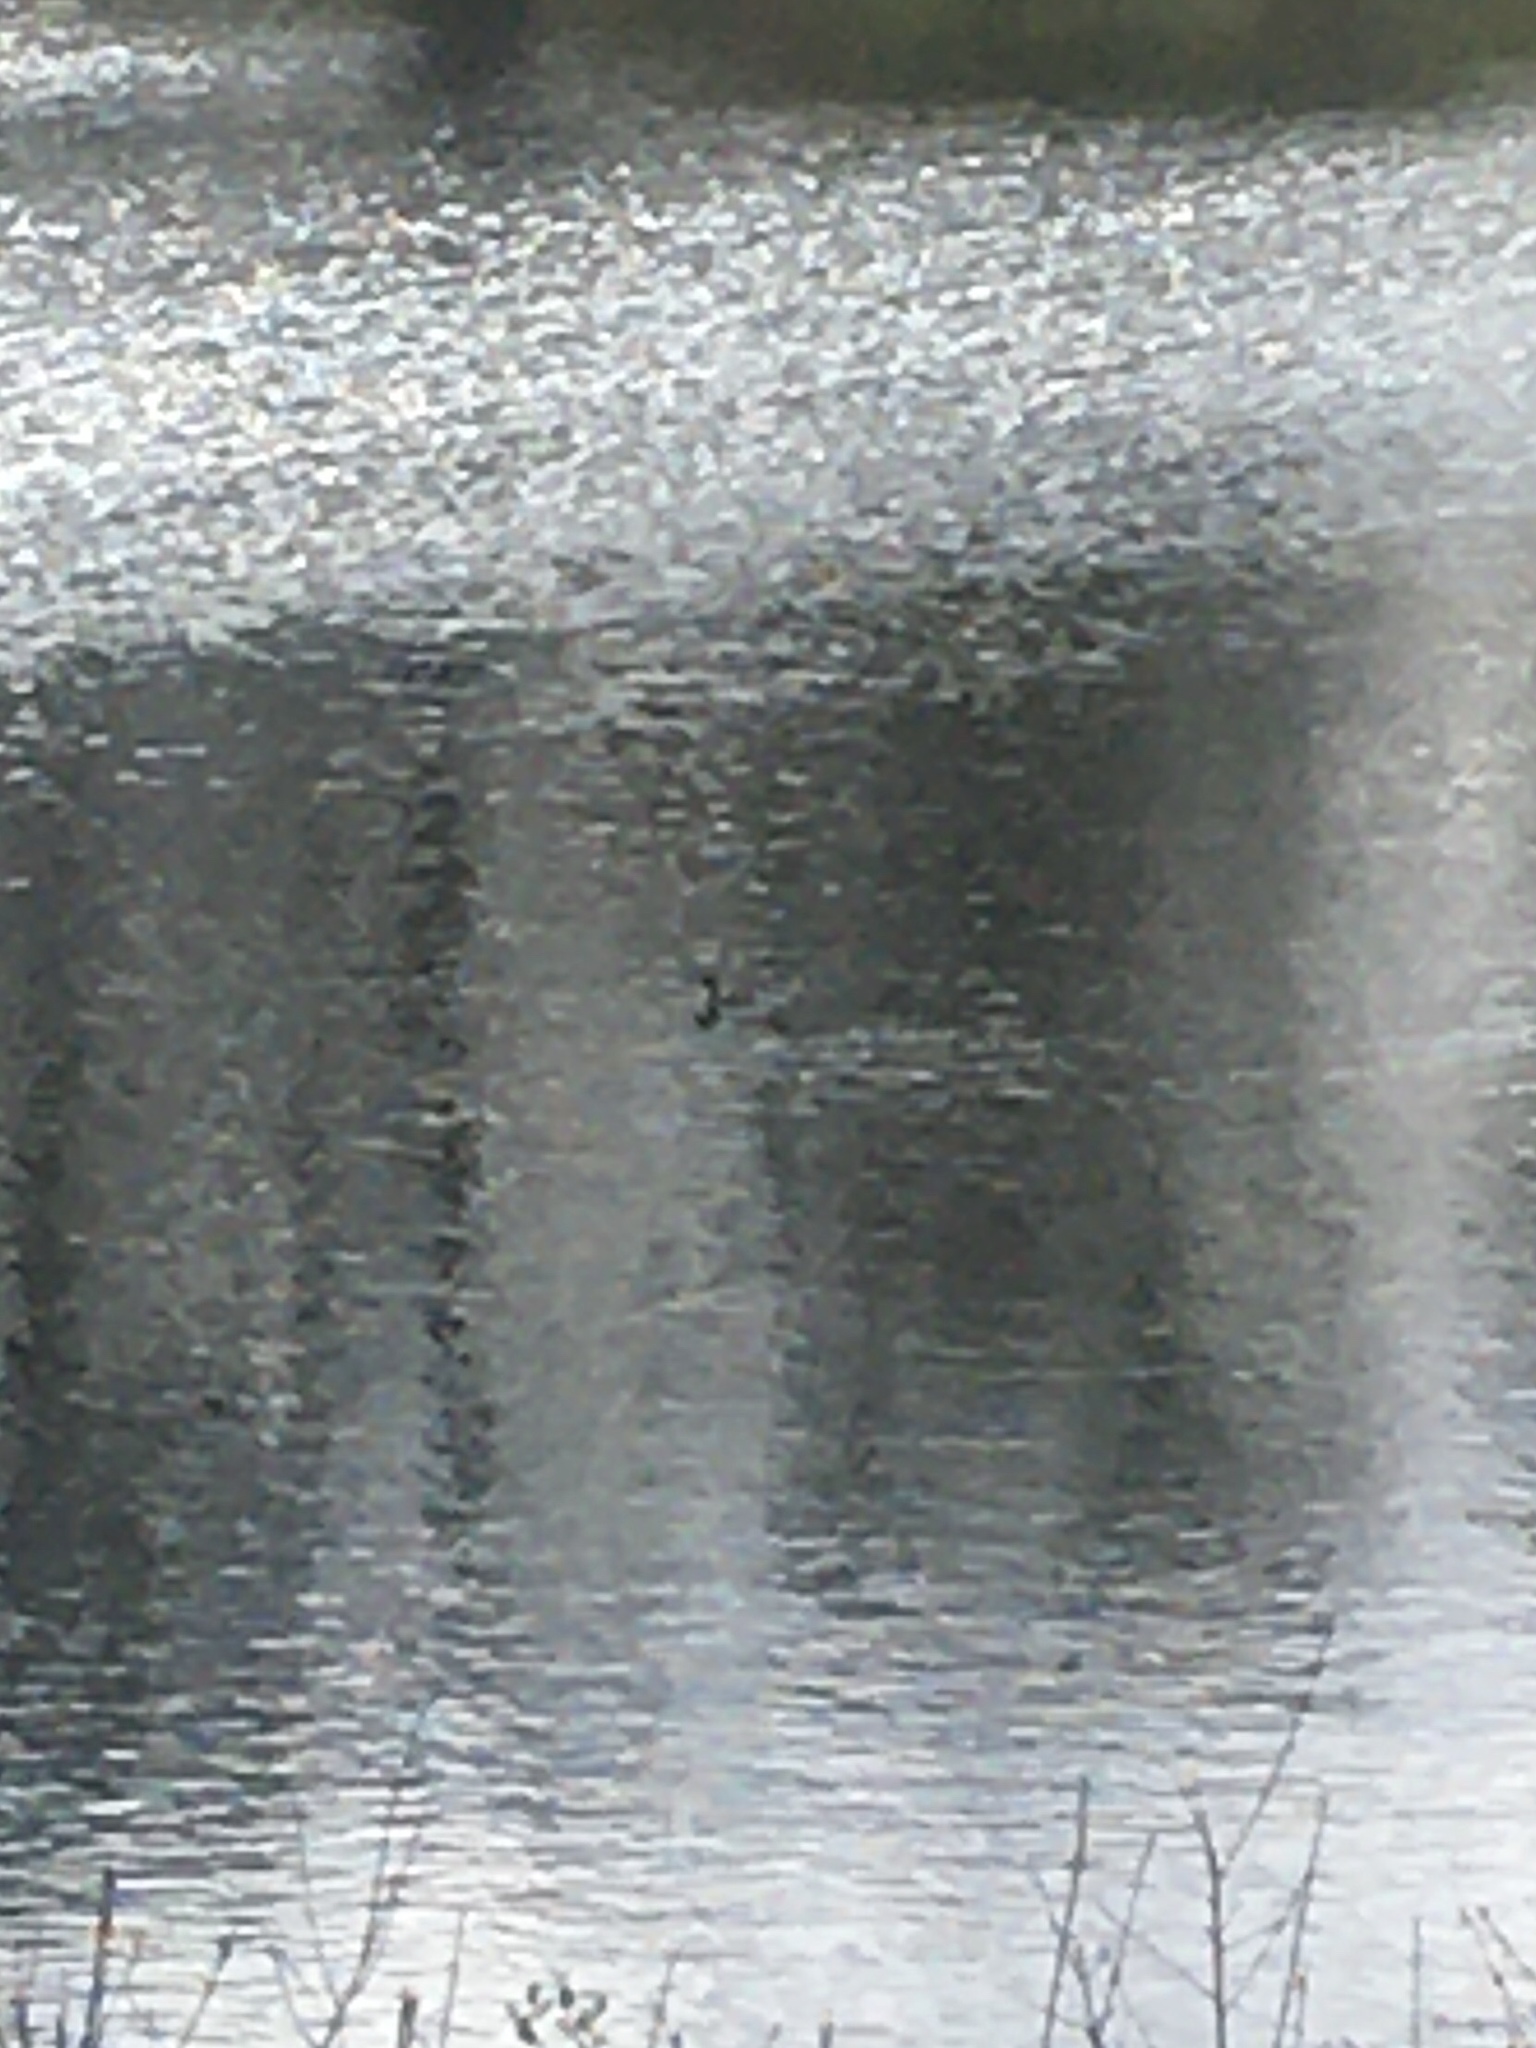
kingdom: Animalia
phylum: Chordata
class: Aves
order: Podicipediformes
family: Podicipedidae
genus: Podilymbus
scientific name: Podilymbus podiceps
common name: Pied-billed grebe
